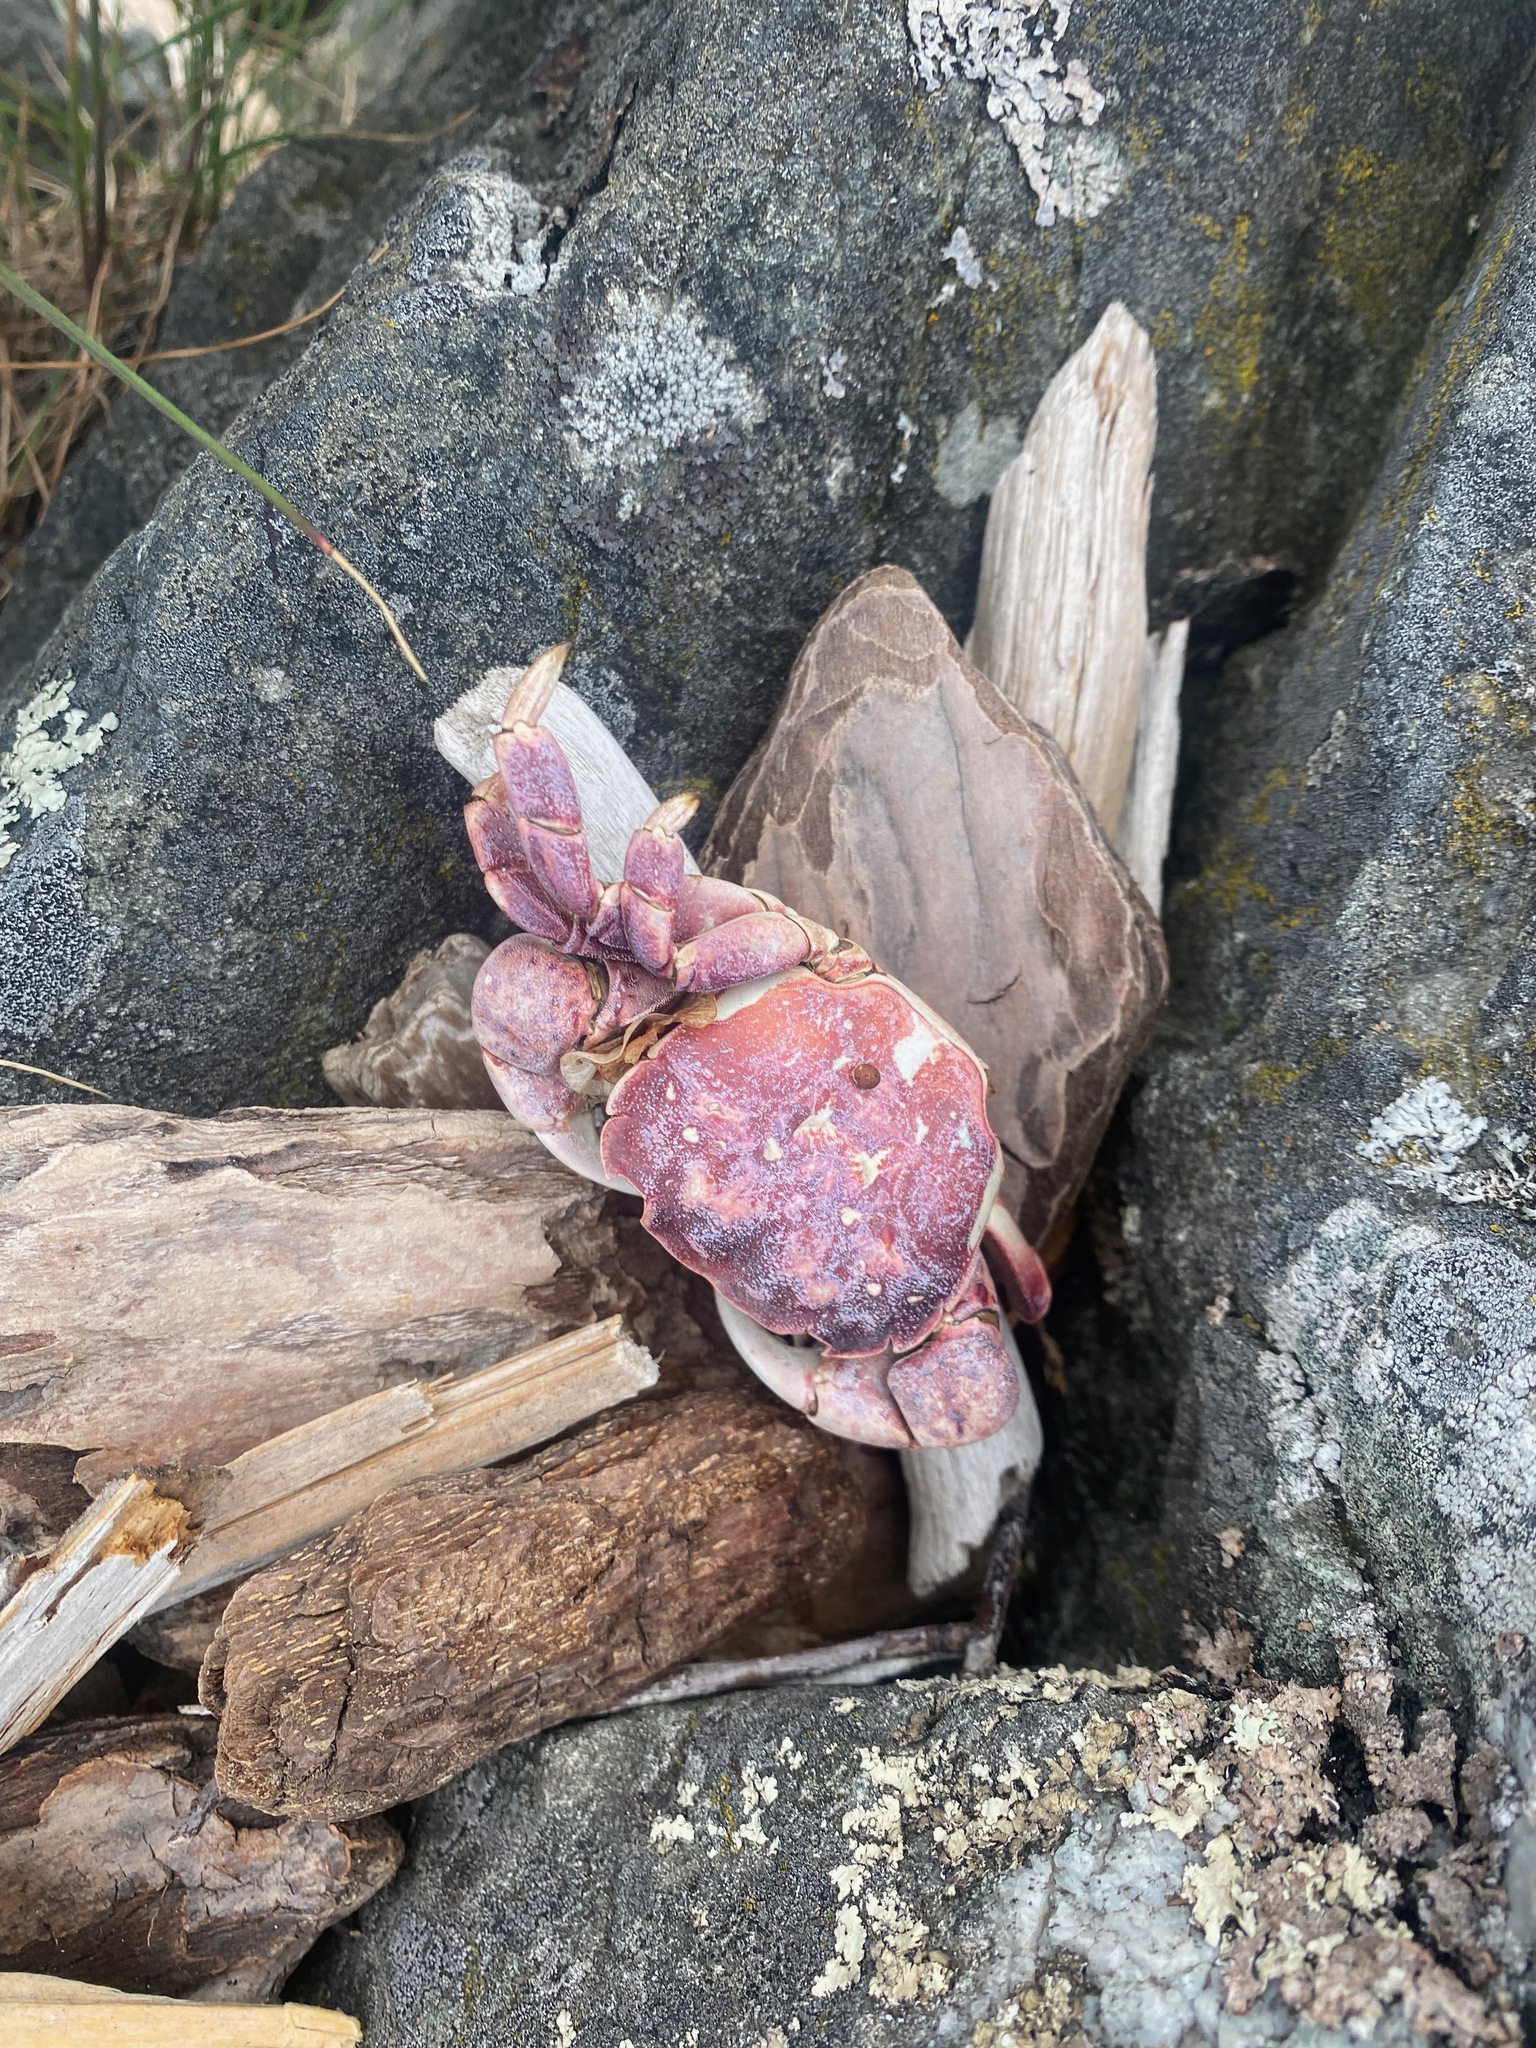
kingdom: Animalia
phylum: Arthropoda
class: Malacostraca
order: Decapoda
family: Varunidae
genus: Hemigrapsus
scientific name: Hemigrapsus nudus
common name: Purple shore crab
